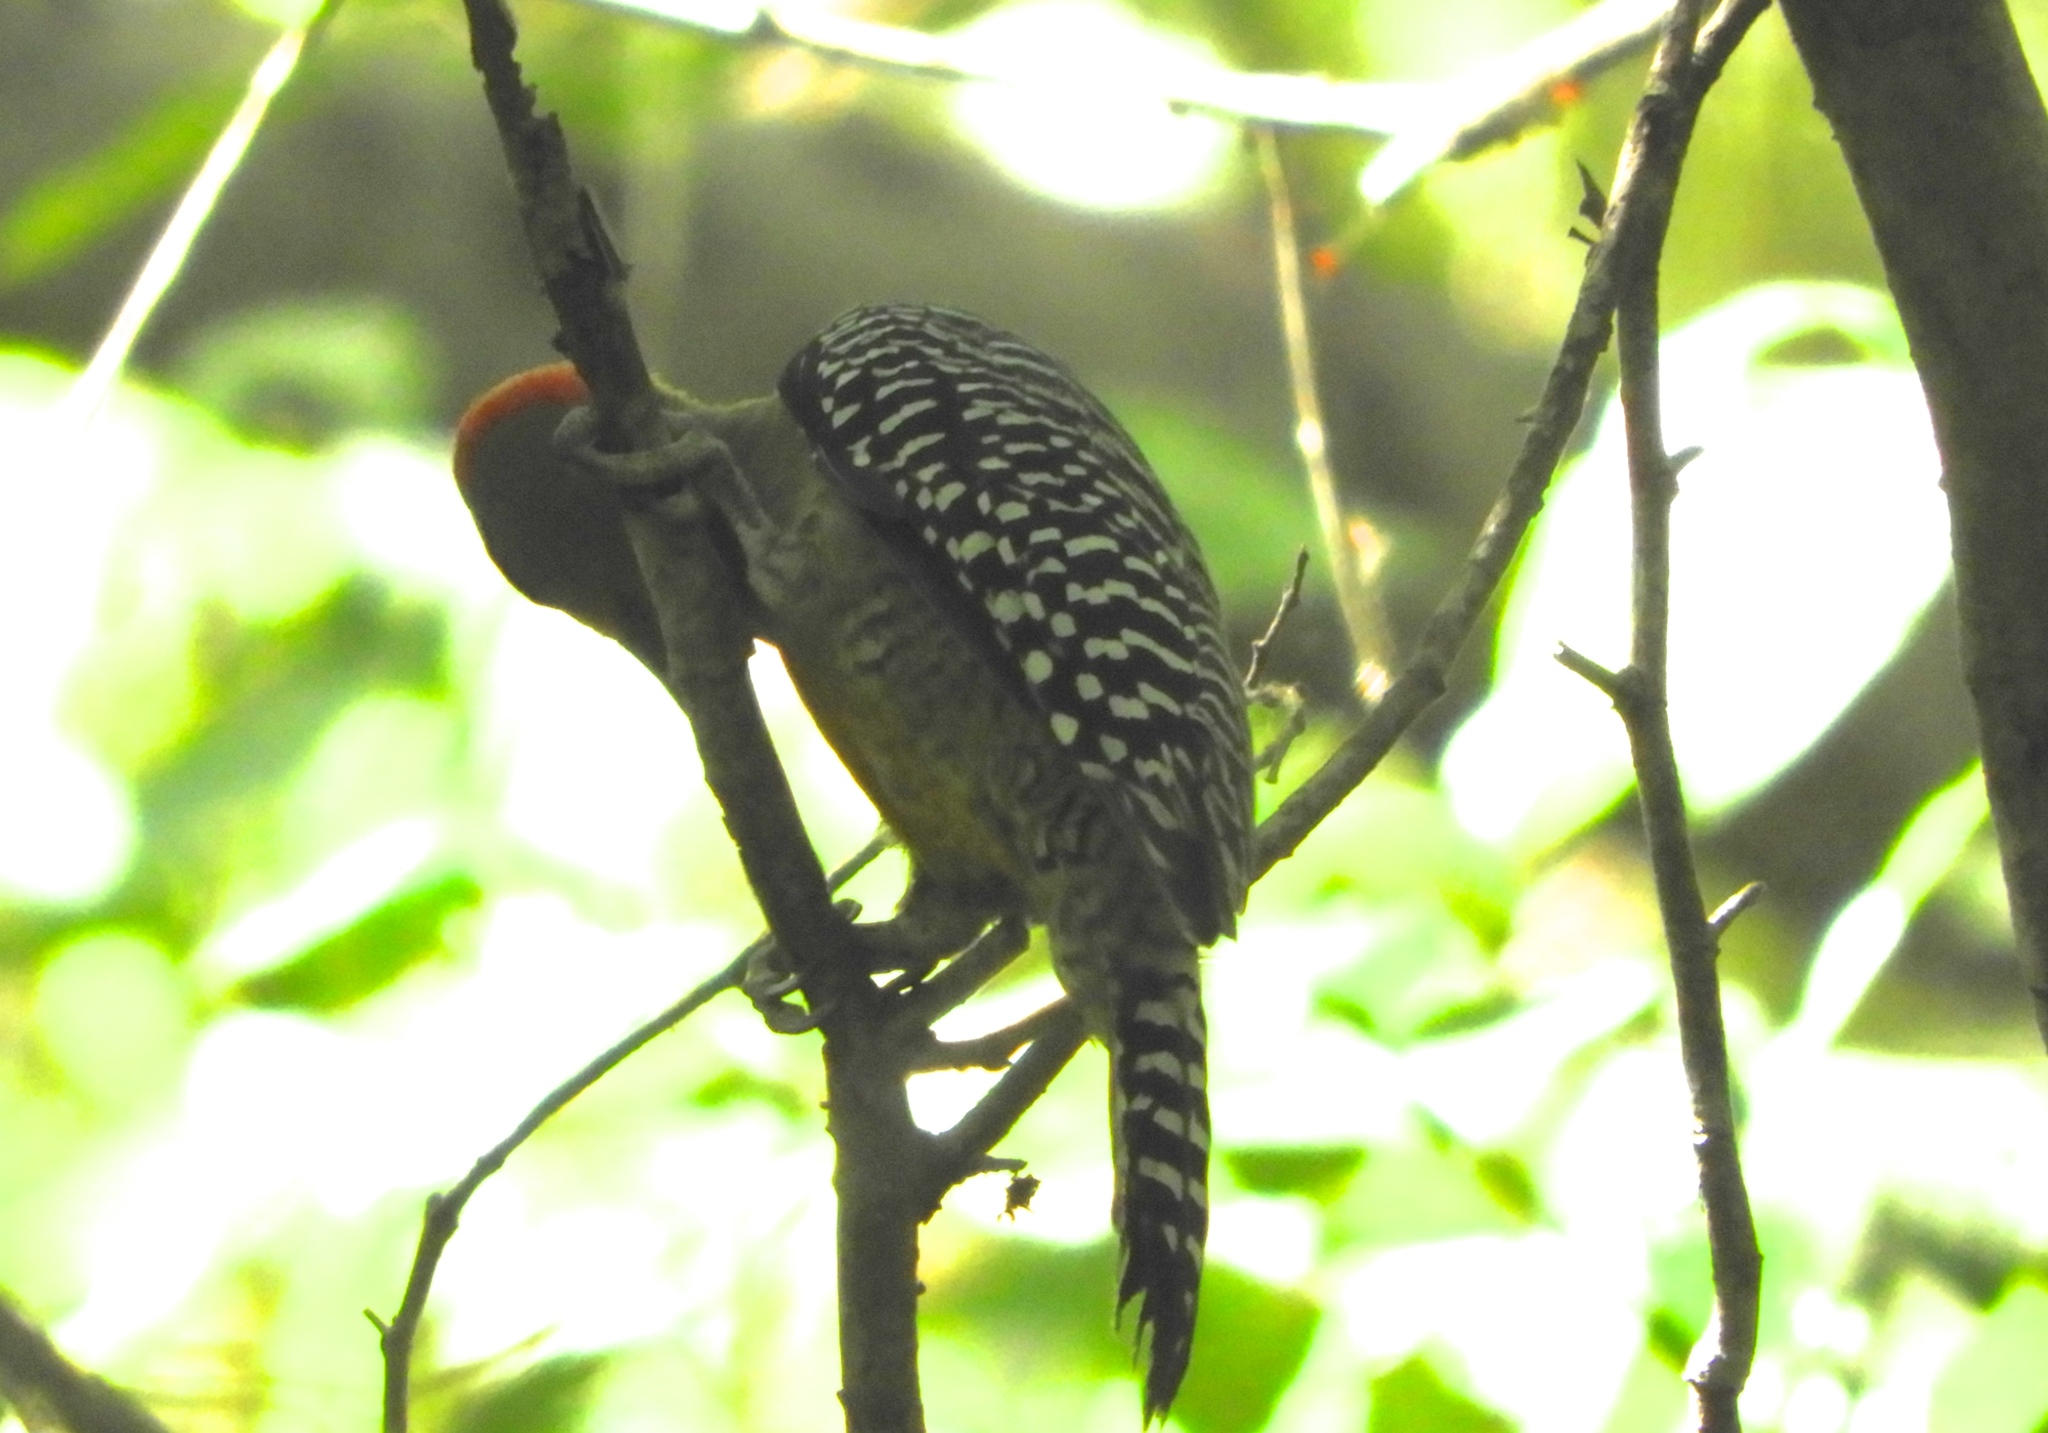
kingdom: Animalia
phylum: Chordata
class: Aves
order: Piciformes
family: Picidae
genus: Melanerpes
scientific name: Melanerpes chrysogenys
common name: Golden-cheeked woodpecker
